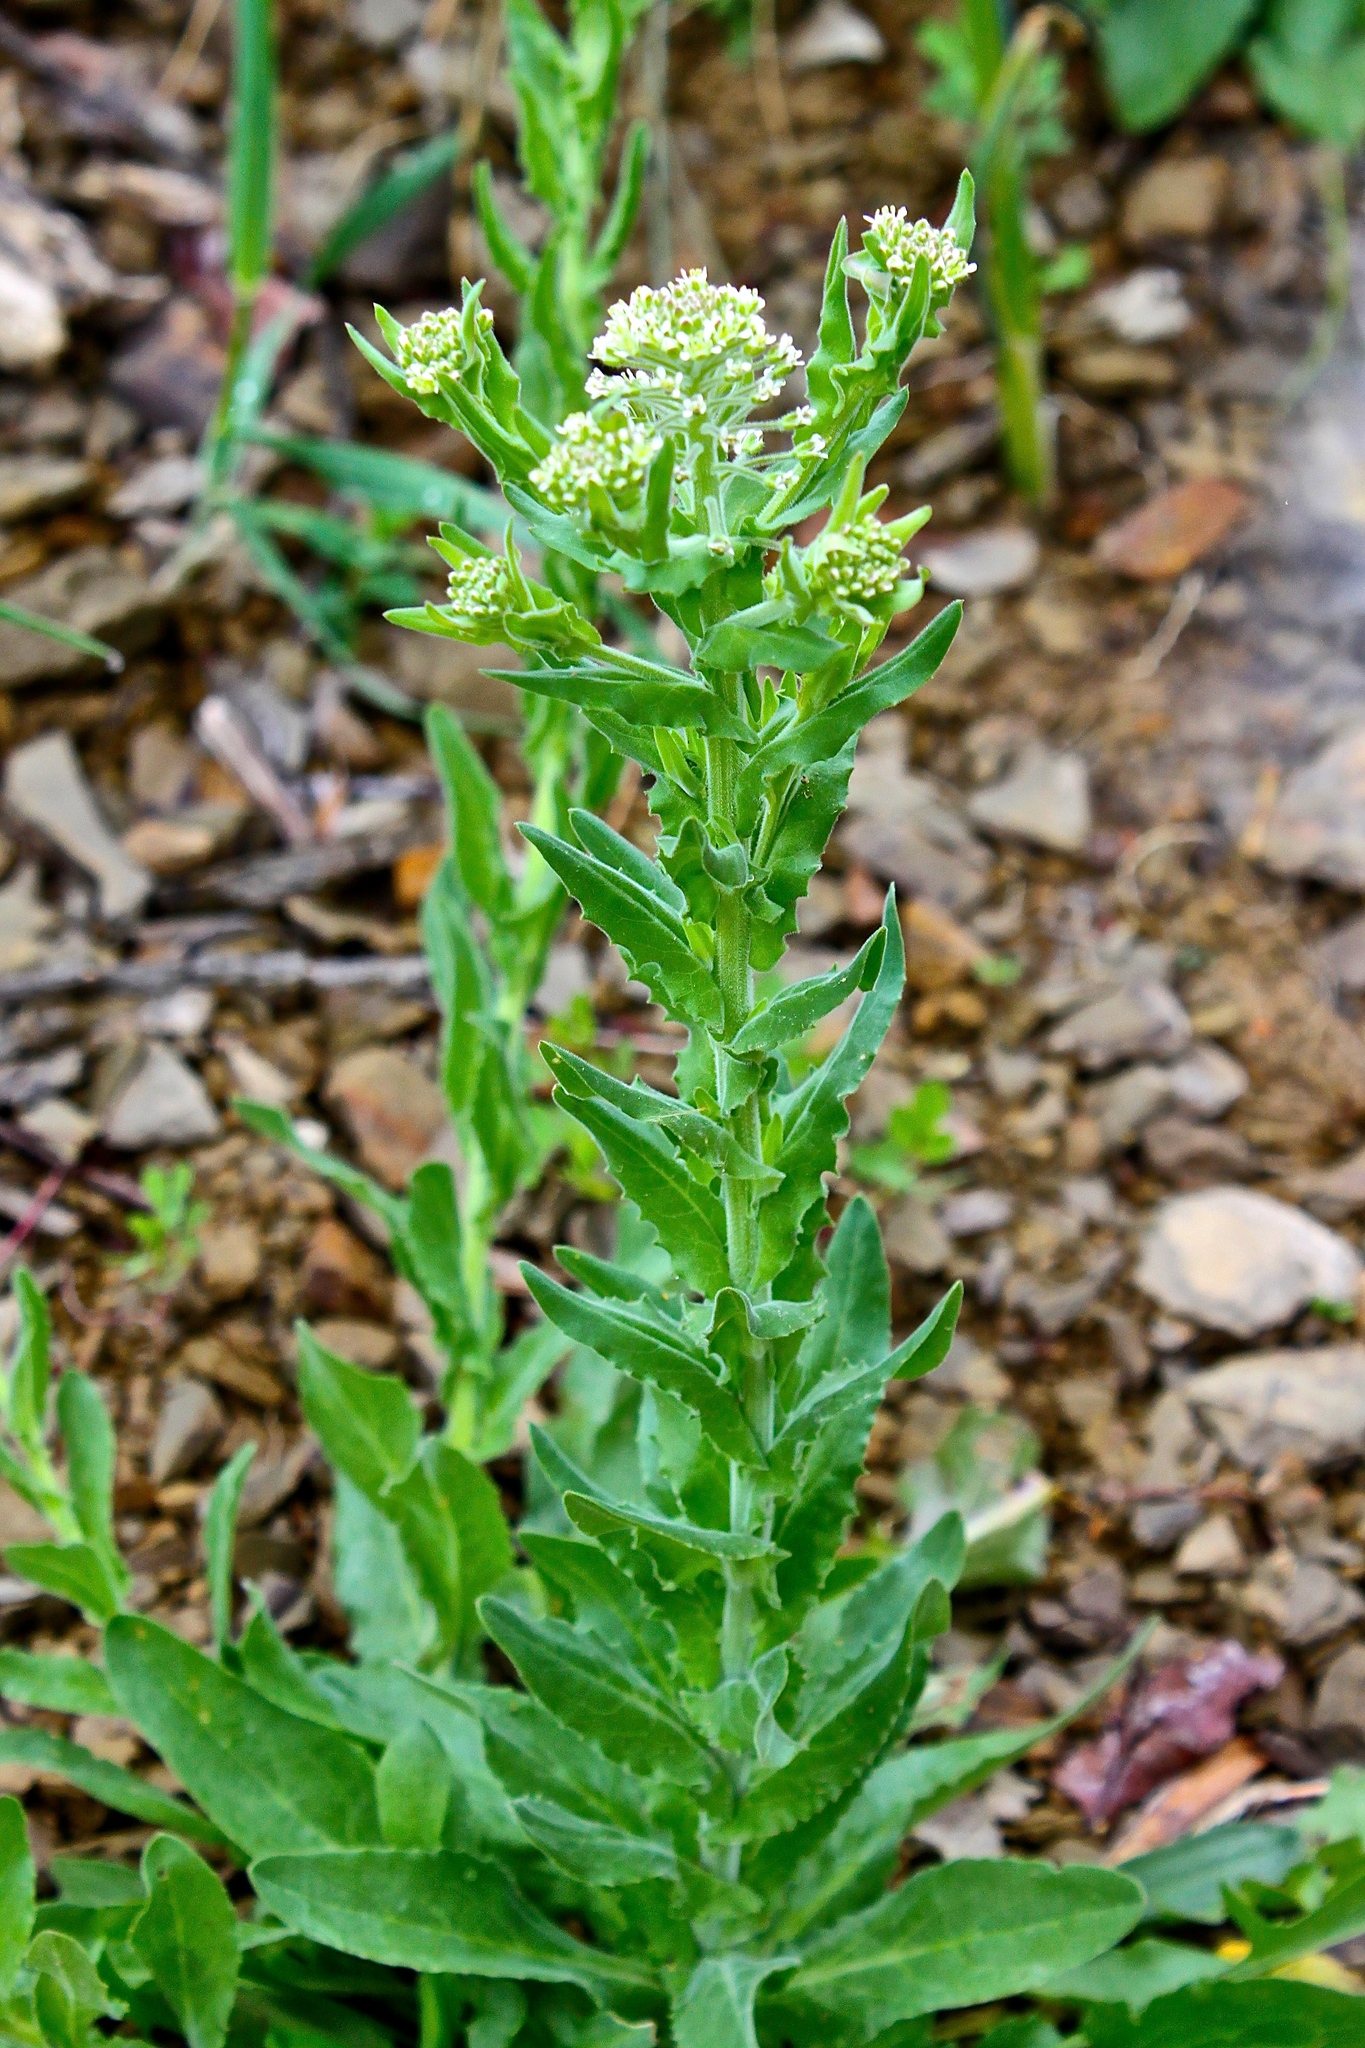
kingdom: Plantae
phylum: Tracheophyta
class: Magnoliopsida
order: Brassicales
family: Brassicaceae
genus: Lepidium
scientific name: Lepidium campestre
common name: Field pepperwort
